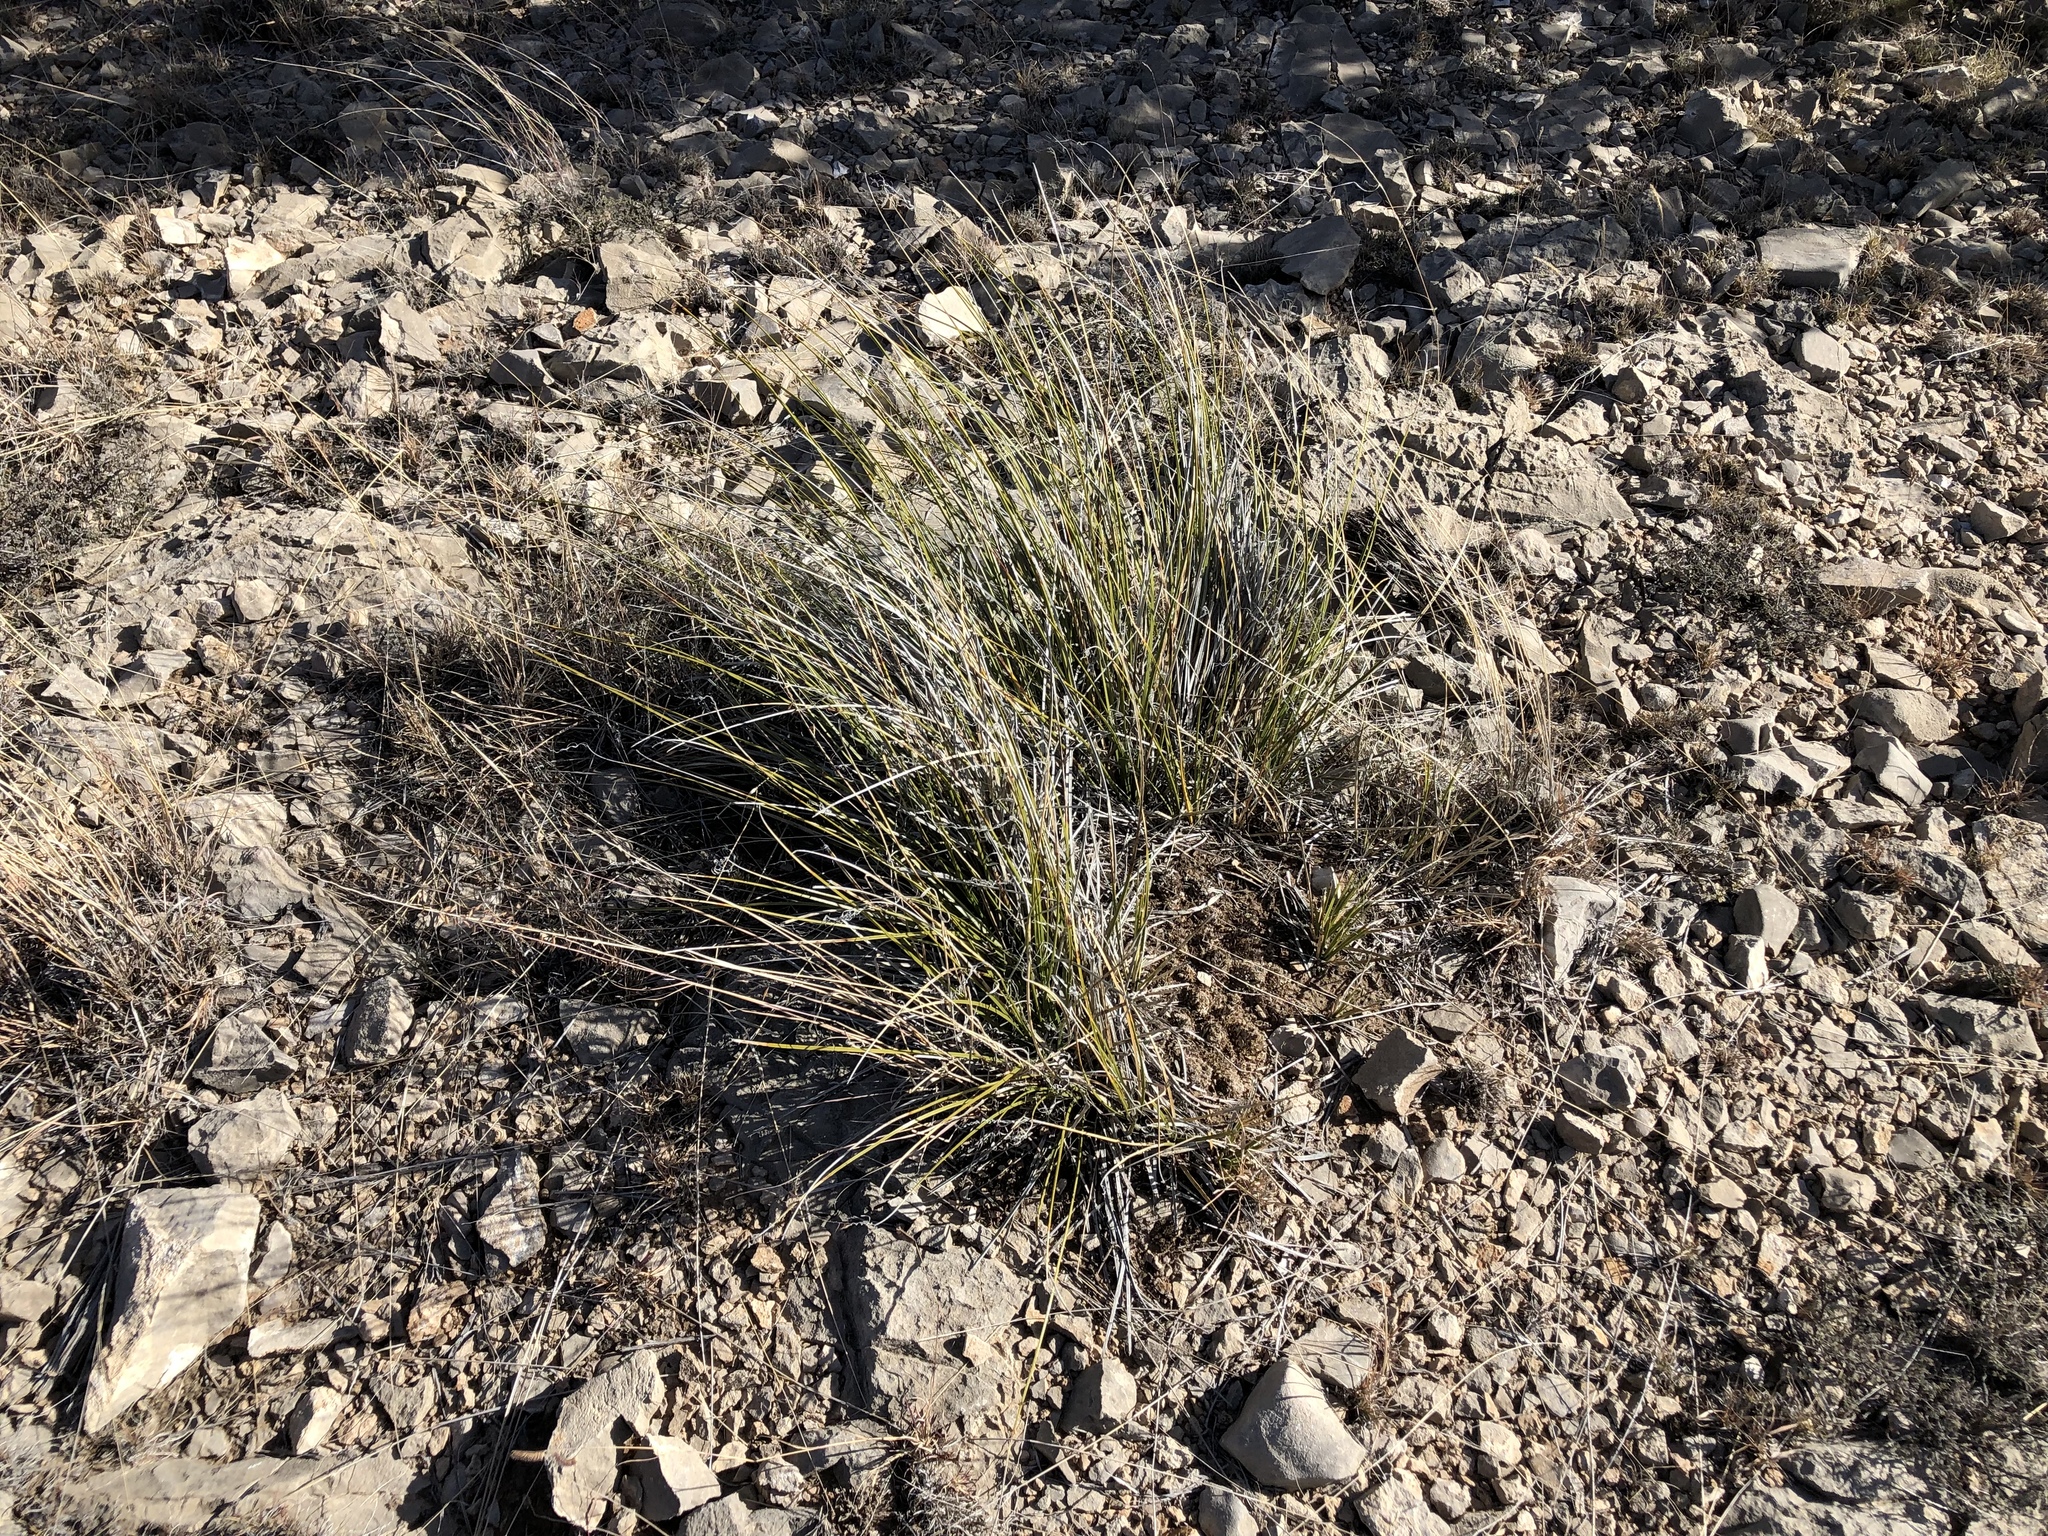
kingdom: Plantae
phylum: Tracheophyta
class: Liliopsida
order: Asparagales
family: Asparagaceae
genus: Nolina
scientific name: Nolina texana
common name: Texas sacahuiste
